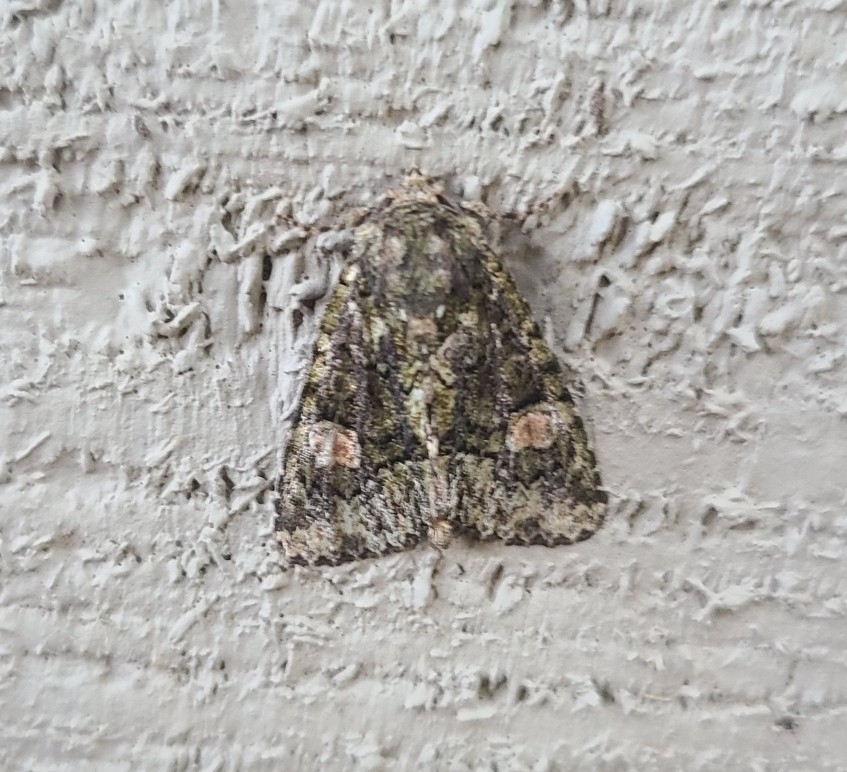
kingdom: Animalia
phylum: Arthropoda
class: Insecta
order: Lepidoptera
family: Noctuidae
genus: Phosphila
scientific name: Phosphila miselioides
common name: Spotted phosphila moth
